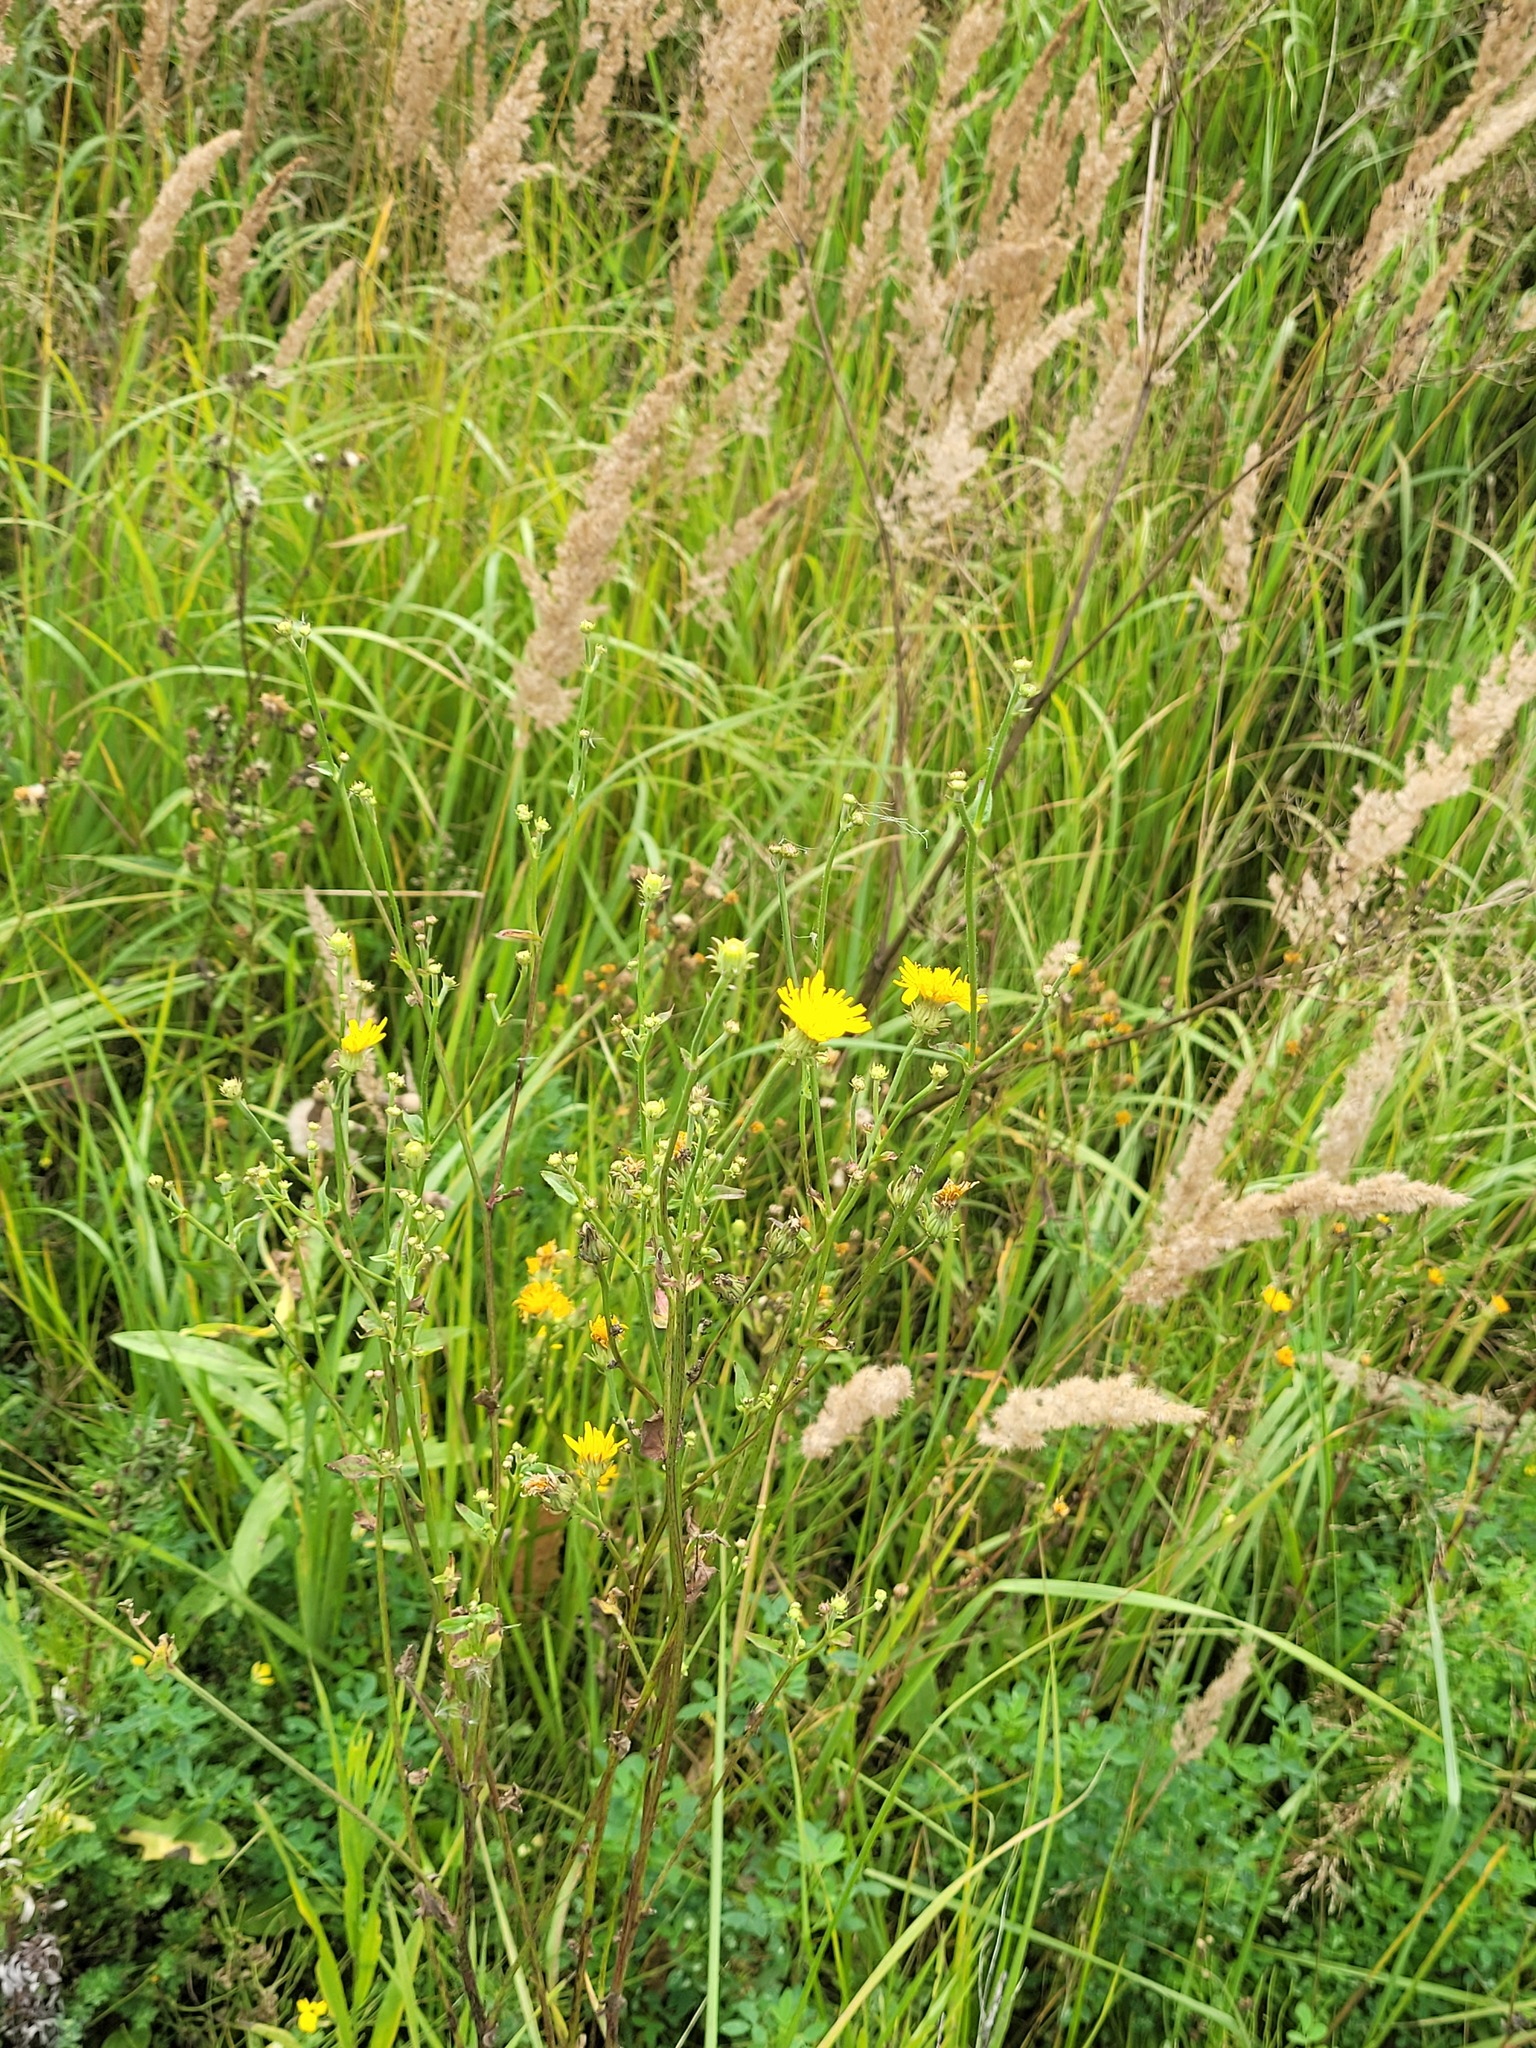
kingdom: Plantae
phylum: Tracheophyta
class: Magnoliopsida
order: Asterales
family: Asteraceae
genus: Picris
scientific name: Picris hieracioides
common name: Hawkweed oxtongue
